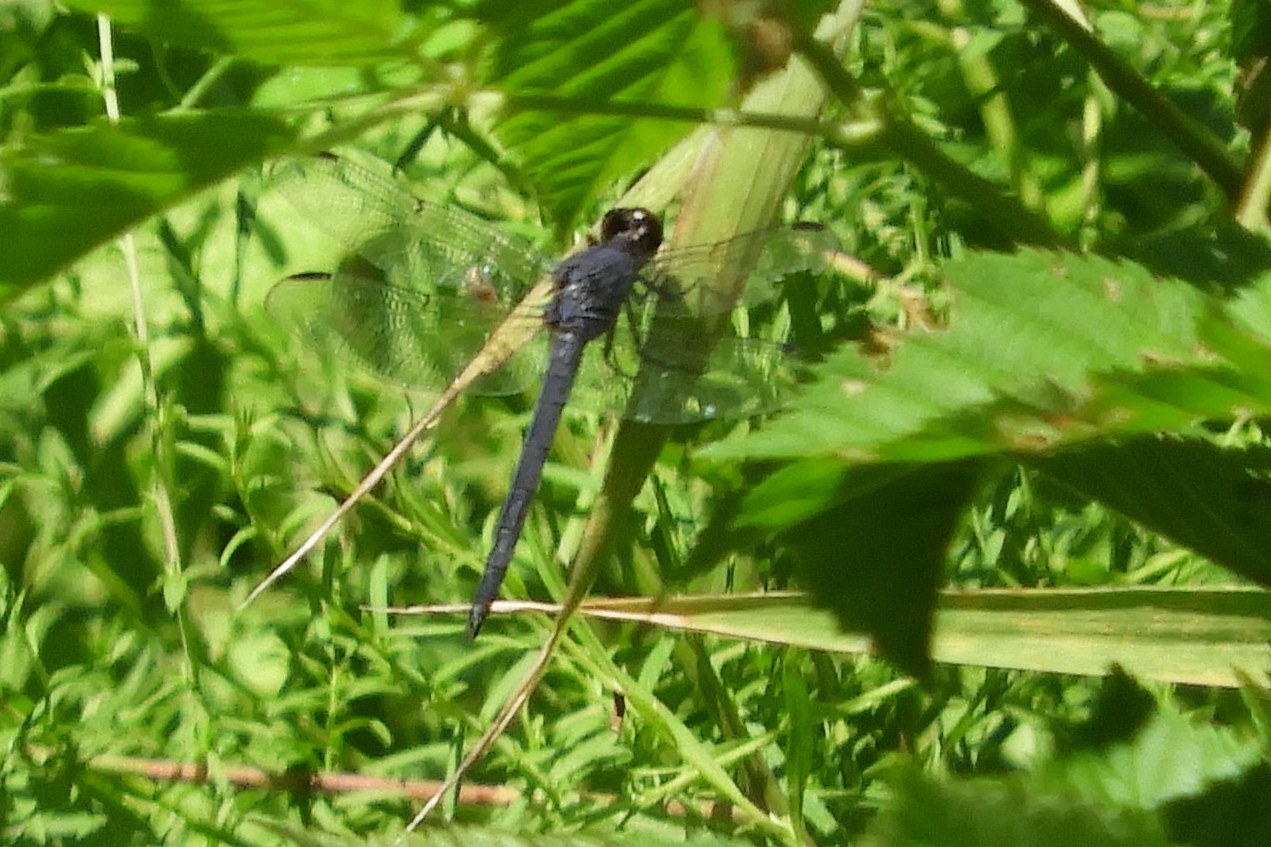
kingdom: Animalia
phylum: Arthropoda
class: Insecta
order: Odonata
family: Libellulidae
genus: Libellula
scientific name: Libellula incesta
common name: Slaty skimmer
